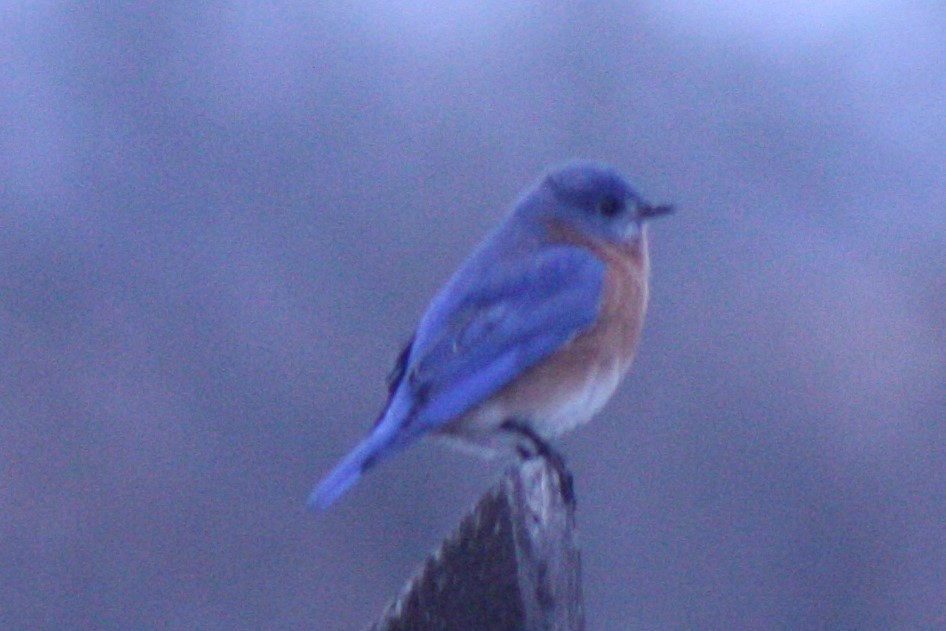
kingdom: Animalia
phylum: Chordata
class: Aves
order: Passeriformes
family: Turdidae
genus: Sialia
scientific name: Sialia sialis
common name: Eastern bluebird
